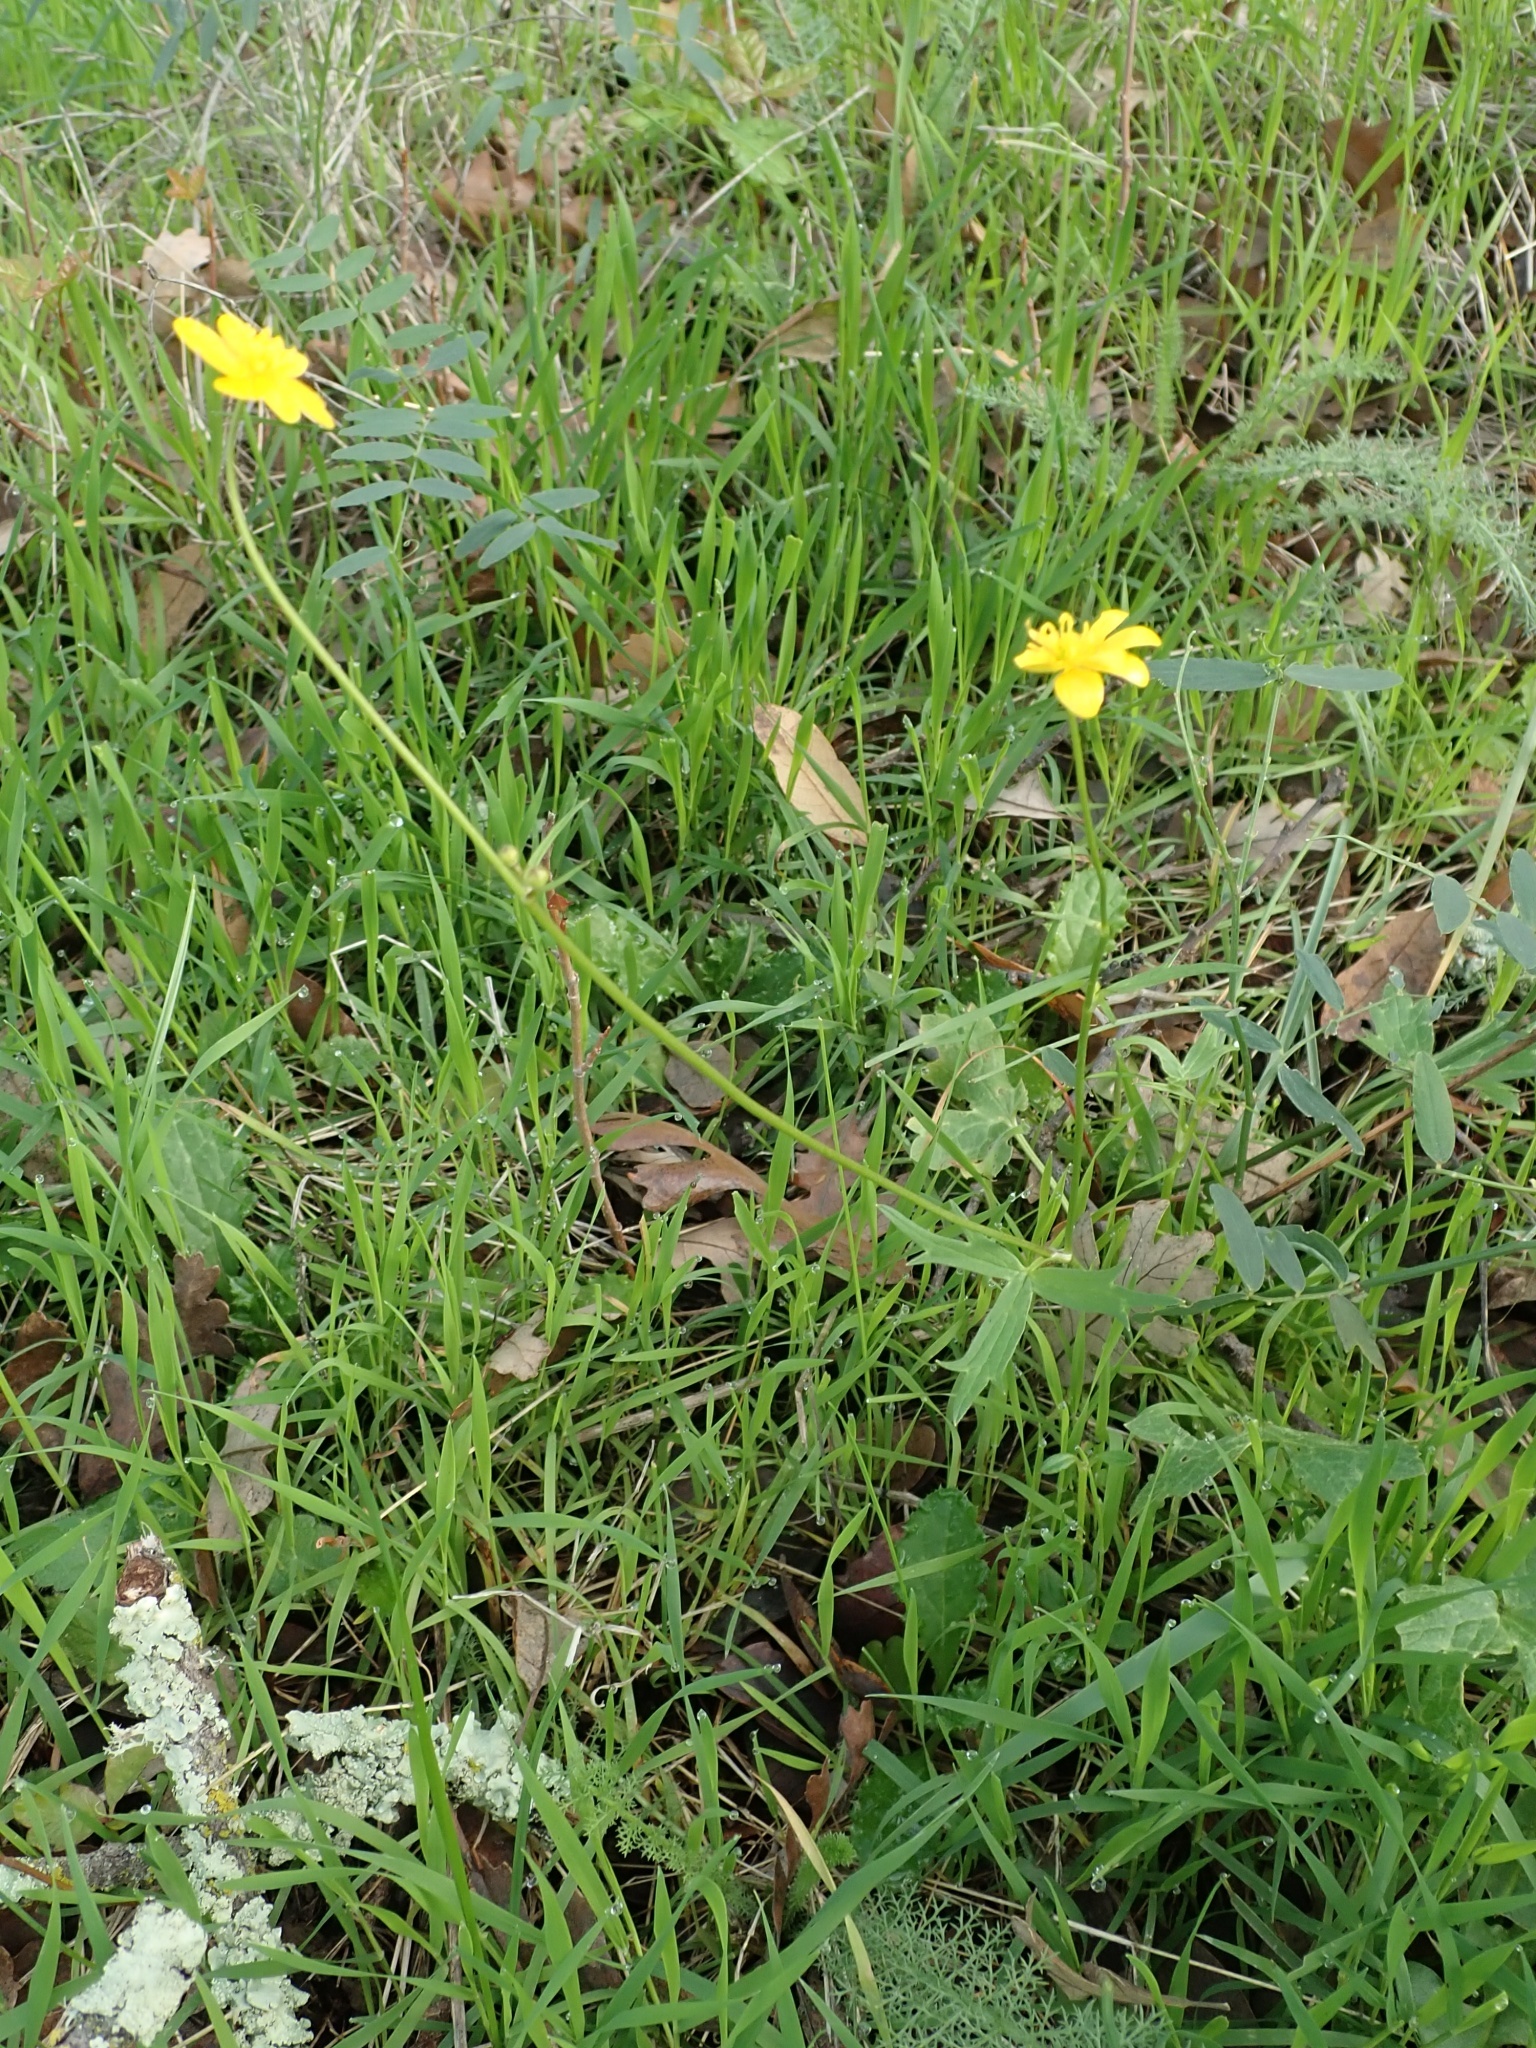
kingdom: Plantae
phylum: Tracheophyta
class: Magnoliopsida
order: Ranunculales
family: Ranunculaceae
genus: Ranunculus
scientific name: Ranunculus californicus
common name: California buttercup
